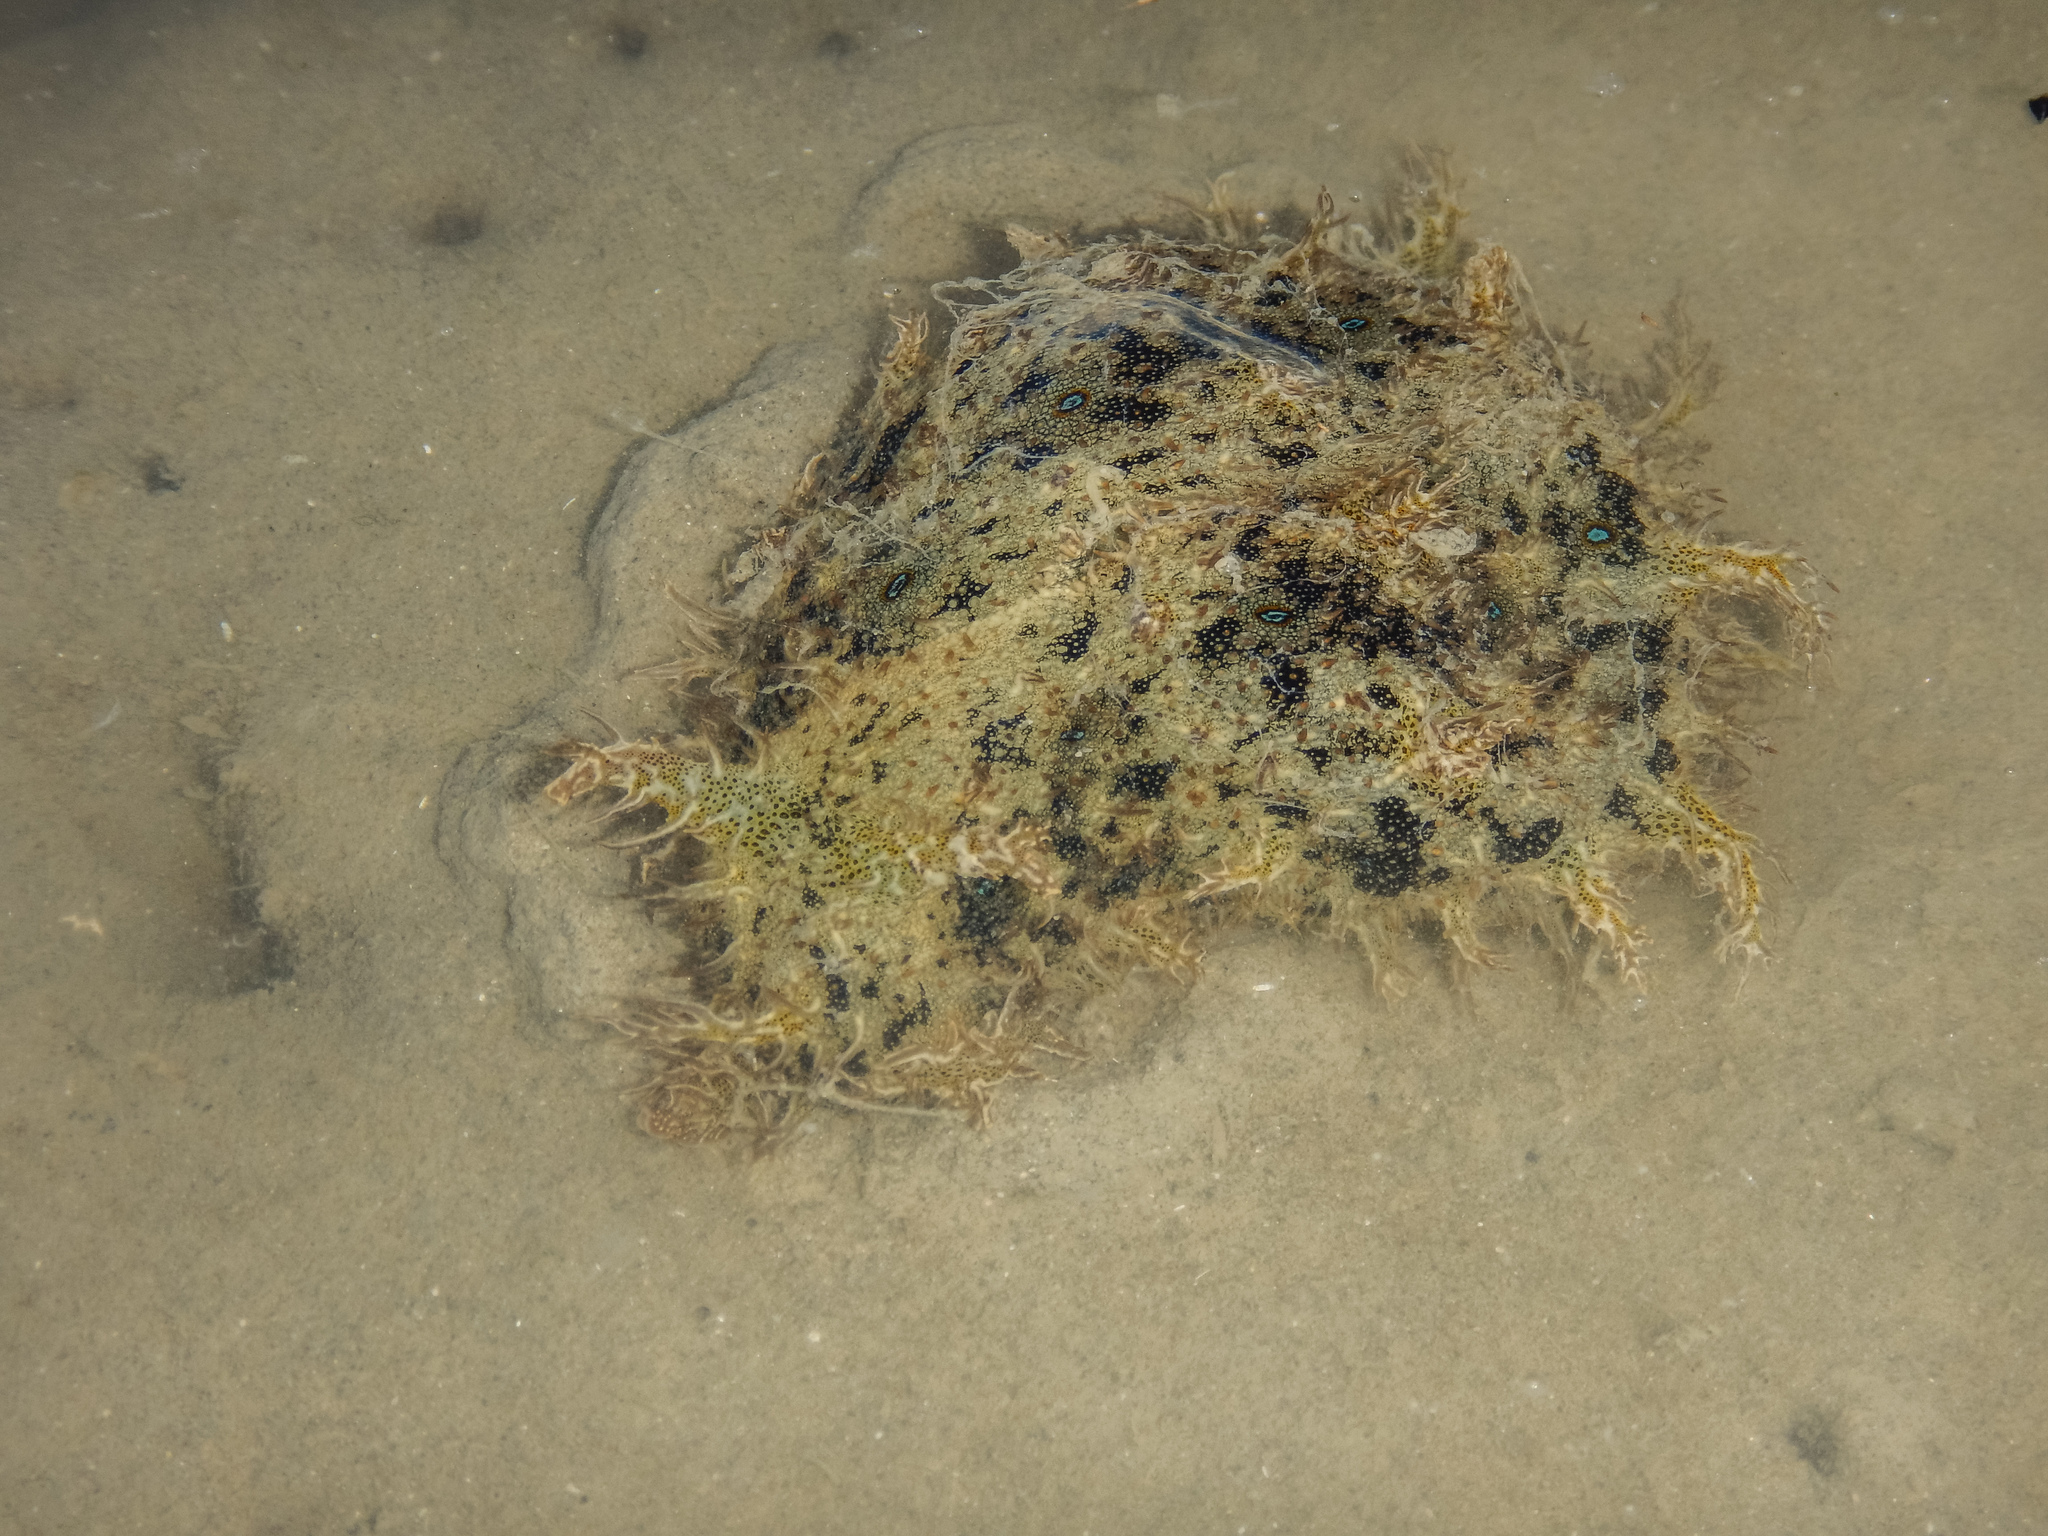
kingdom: Animalia
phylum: Mollusca
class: Gastropoda
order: Aplysiida
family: Aplysiidae
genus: Bursatella
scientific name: Bursatella leachii
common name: Shaggy sea hare
